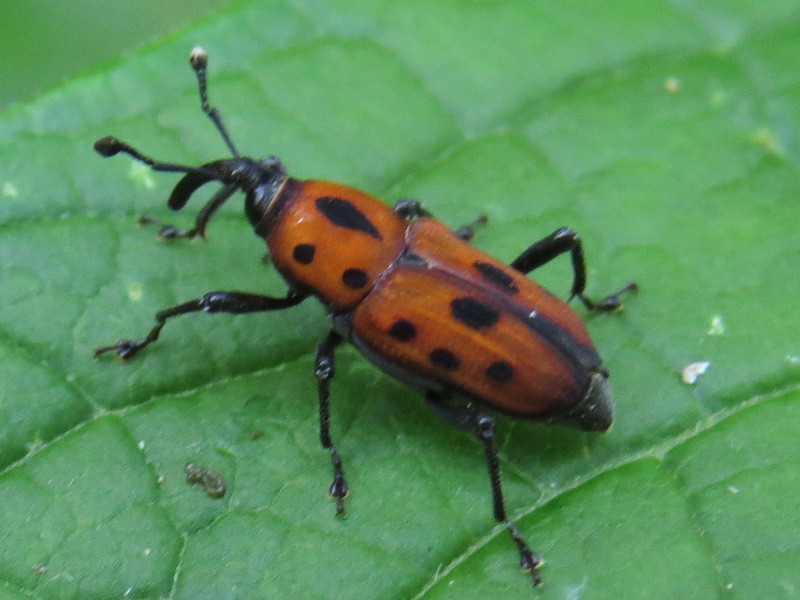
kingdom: Animalia
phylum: Arthropoda
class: Insecta
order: Coleoptera
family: Dryophthoridae
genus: Rhodobaenus
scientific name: Rhodobaenus tredecimpunctatus
